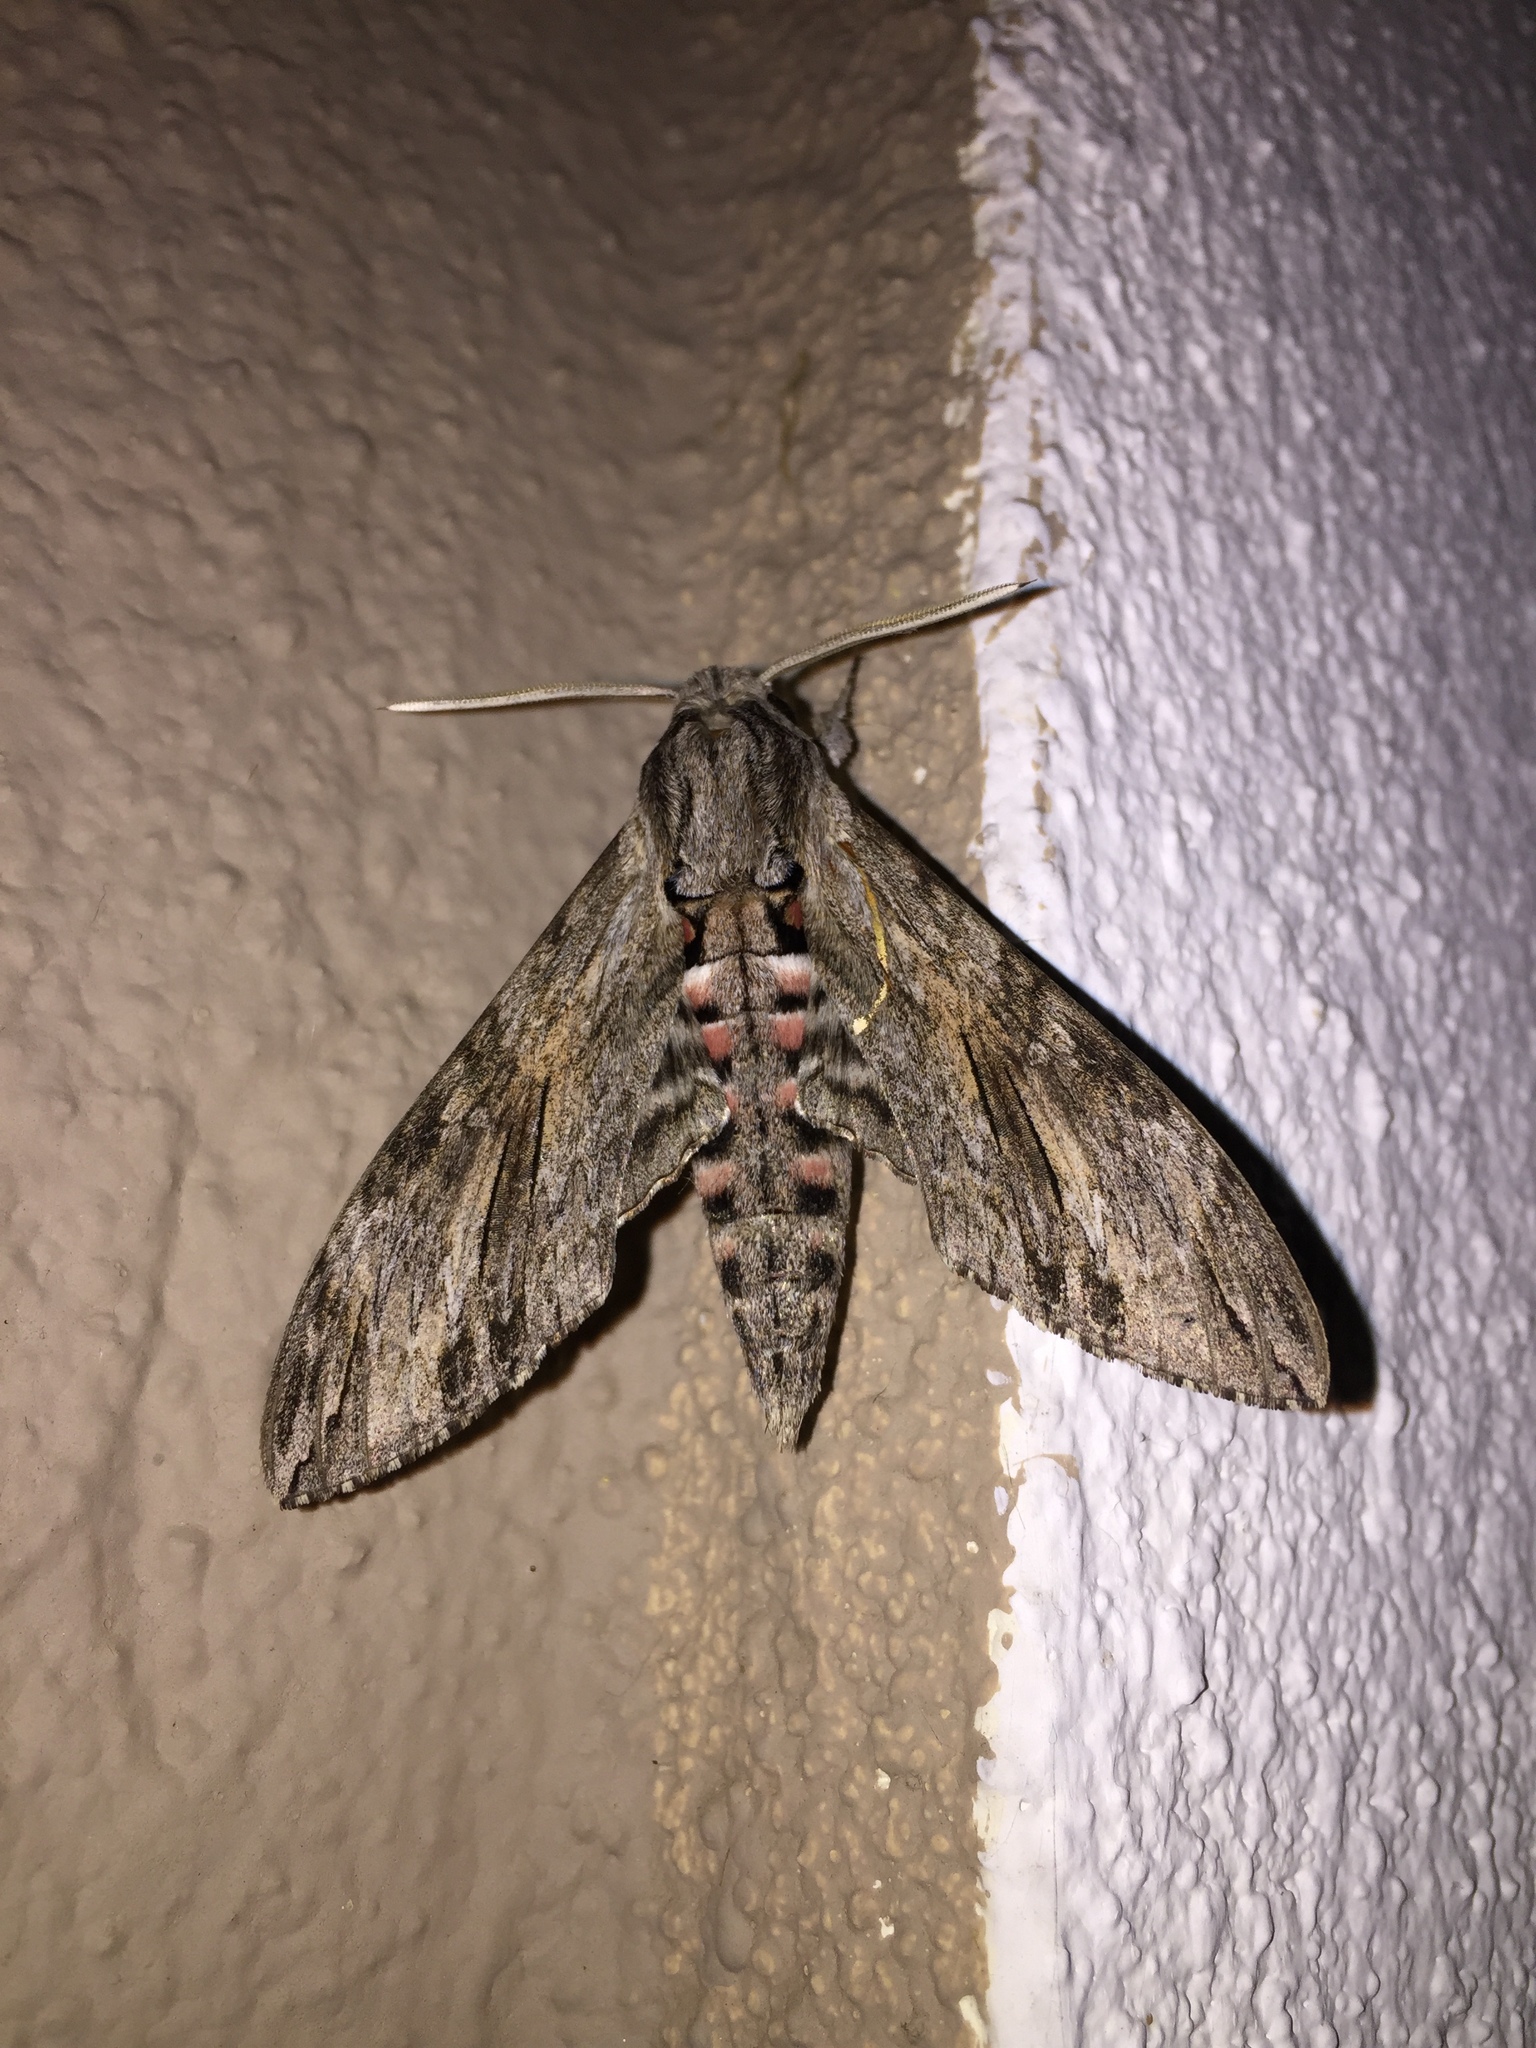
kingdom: Animalia
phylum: Arthropoda
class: Insecta
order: Lepidoptera
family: Sphingidae
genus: Agrius
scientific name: Agrius convolvuli
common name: Convolvulus hawkmoth
